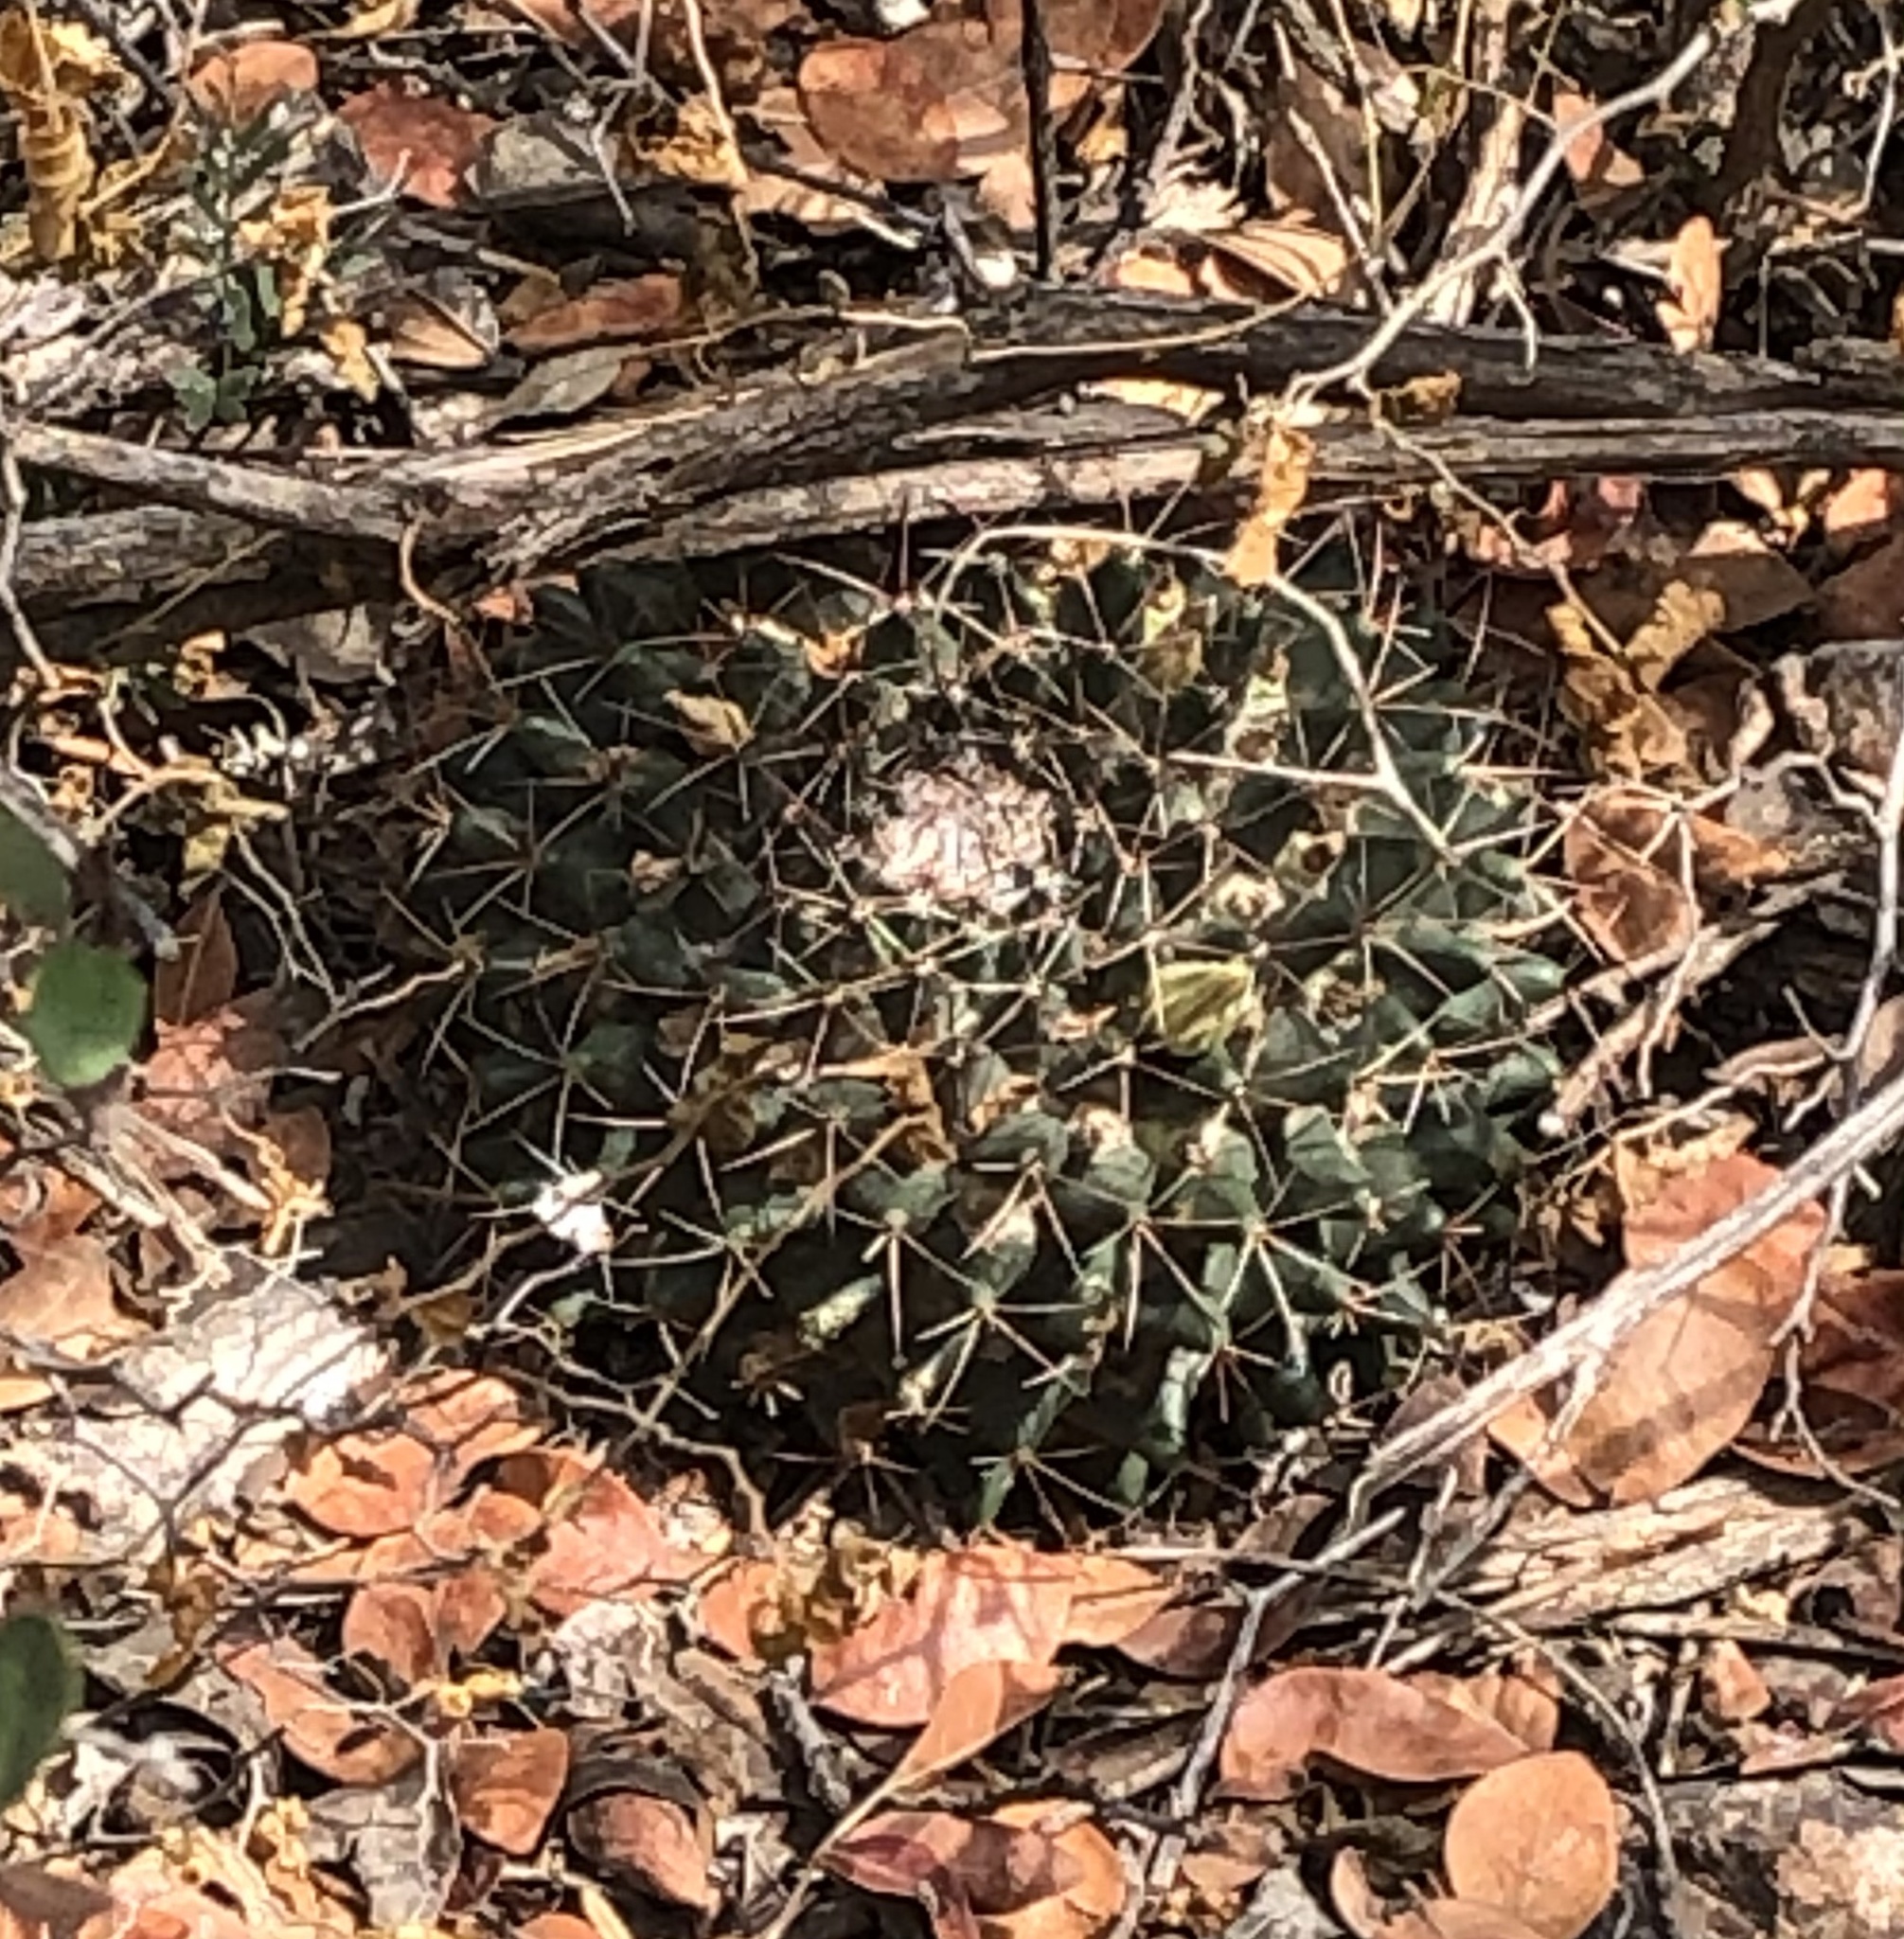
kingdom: Plantae
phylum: Tracheophyta
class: Magnoliopsida
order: Caryophyllales
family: Cactaceae
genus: Mammillaria
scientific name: Mammillaria heyderi
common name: Little nipple cactus
